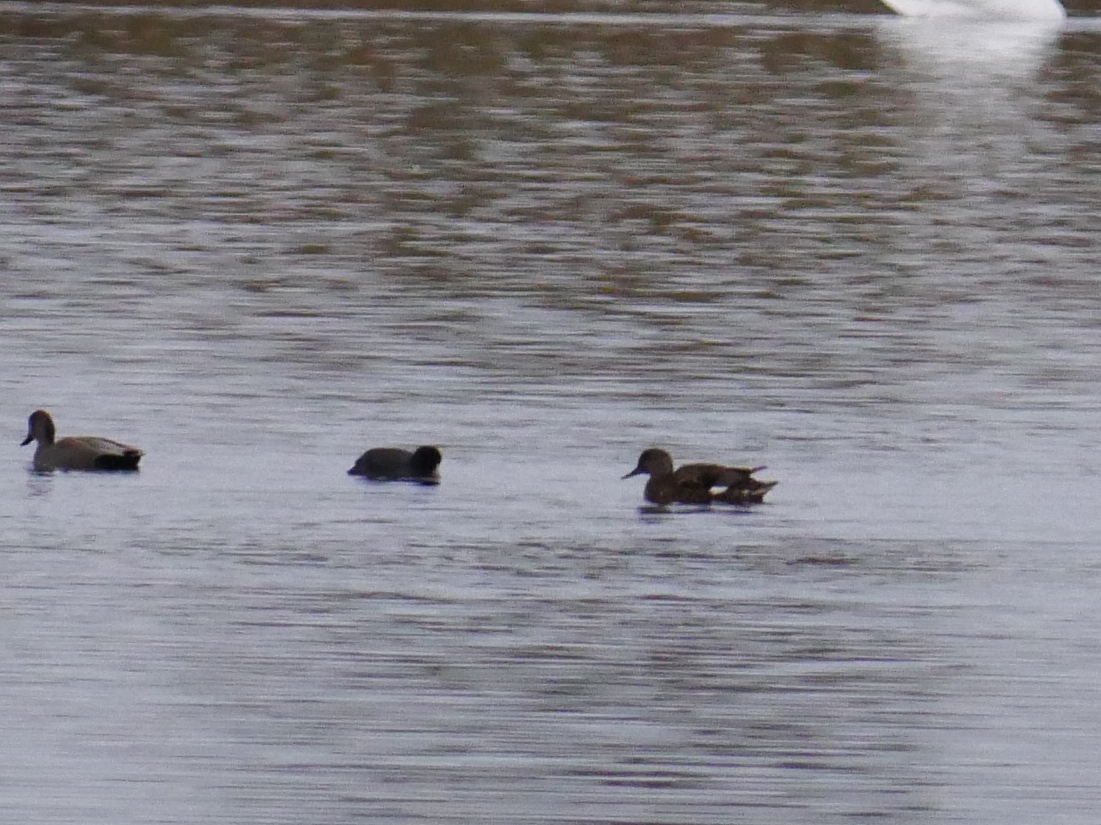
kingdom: Animalia
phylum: Chordata
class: Aves
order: Anseriformes
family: Anatidae
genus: Mareca
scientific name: Mareca strepera
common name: Gadwall
